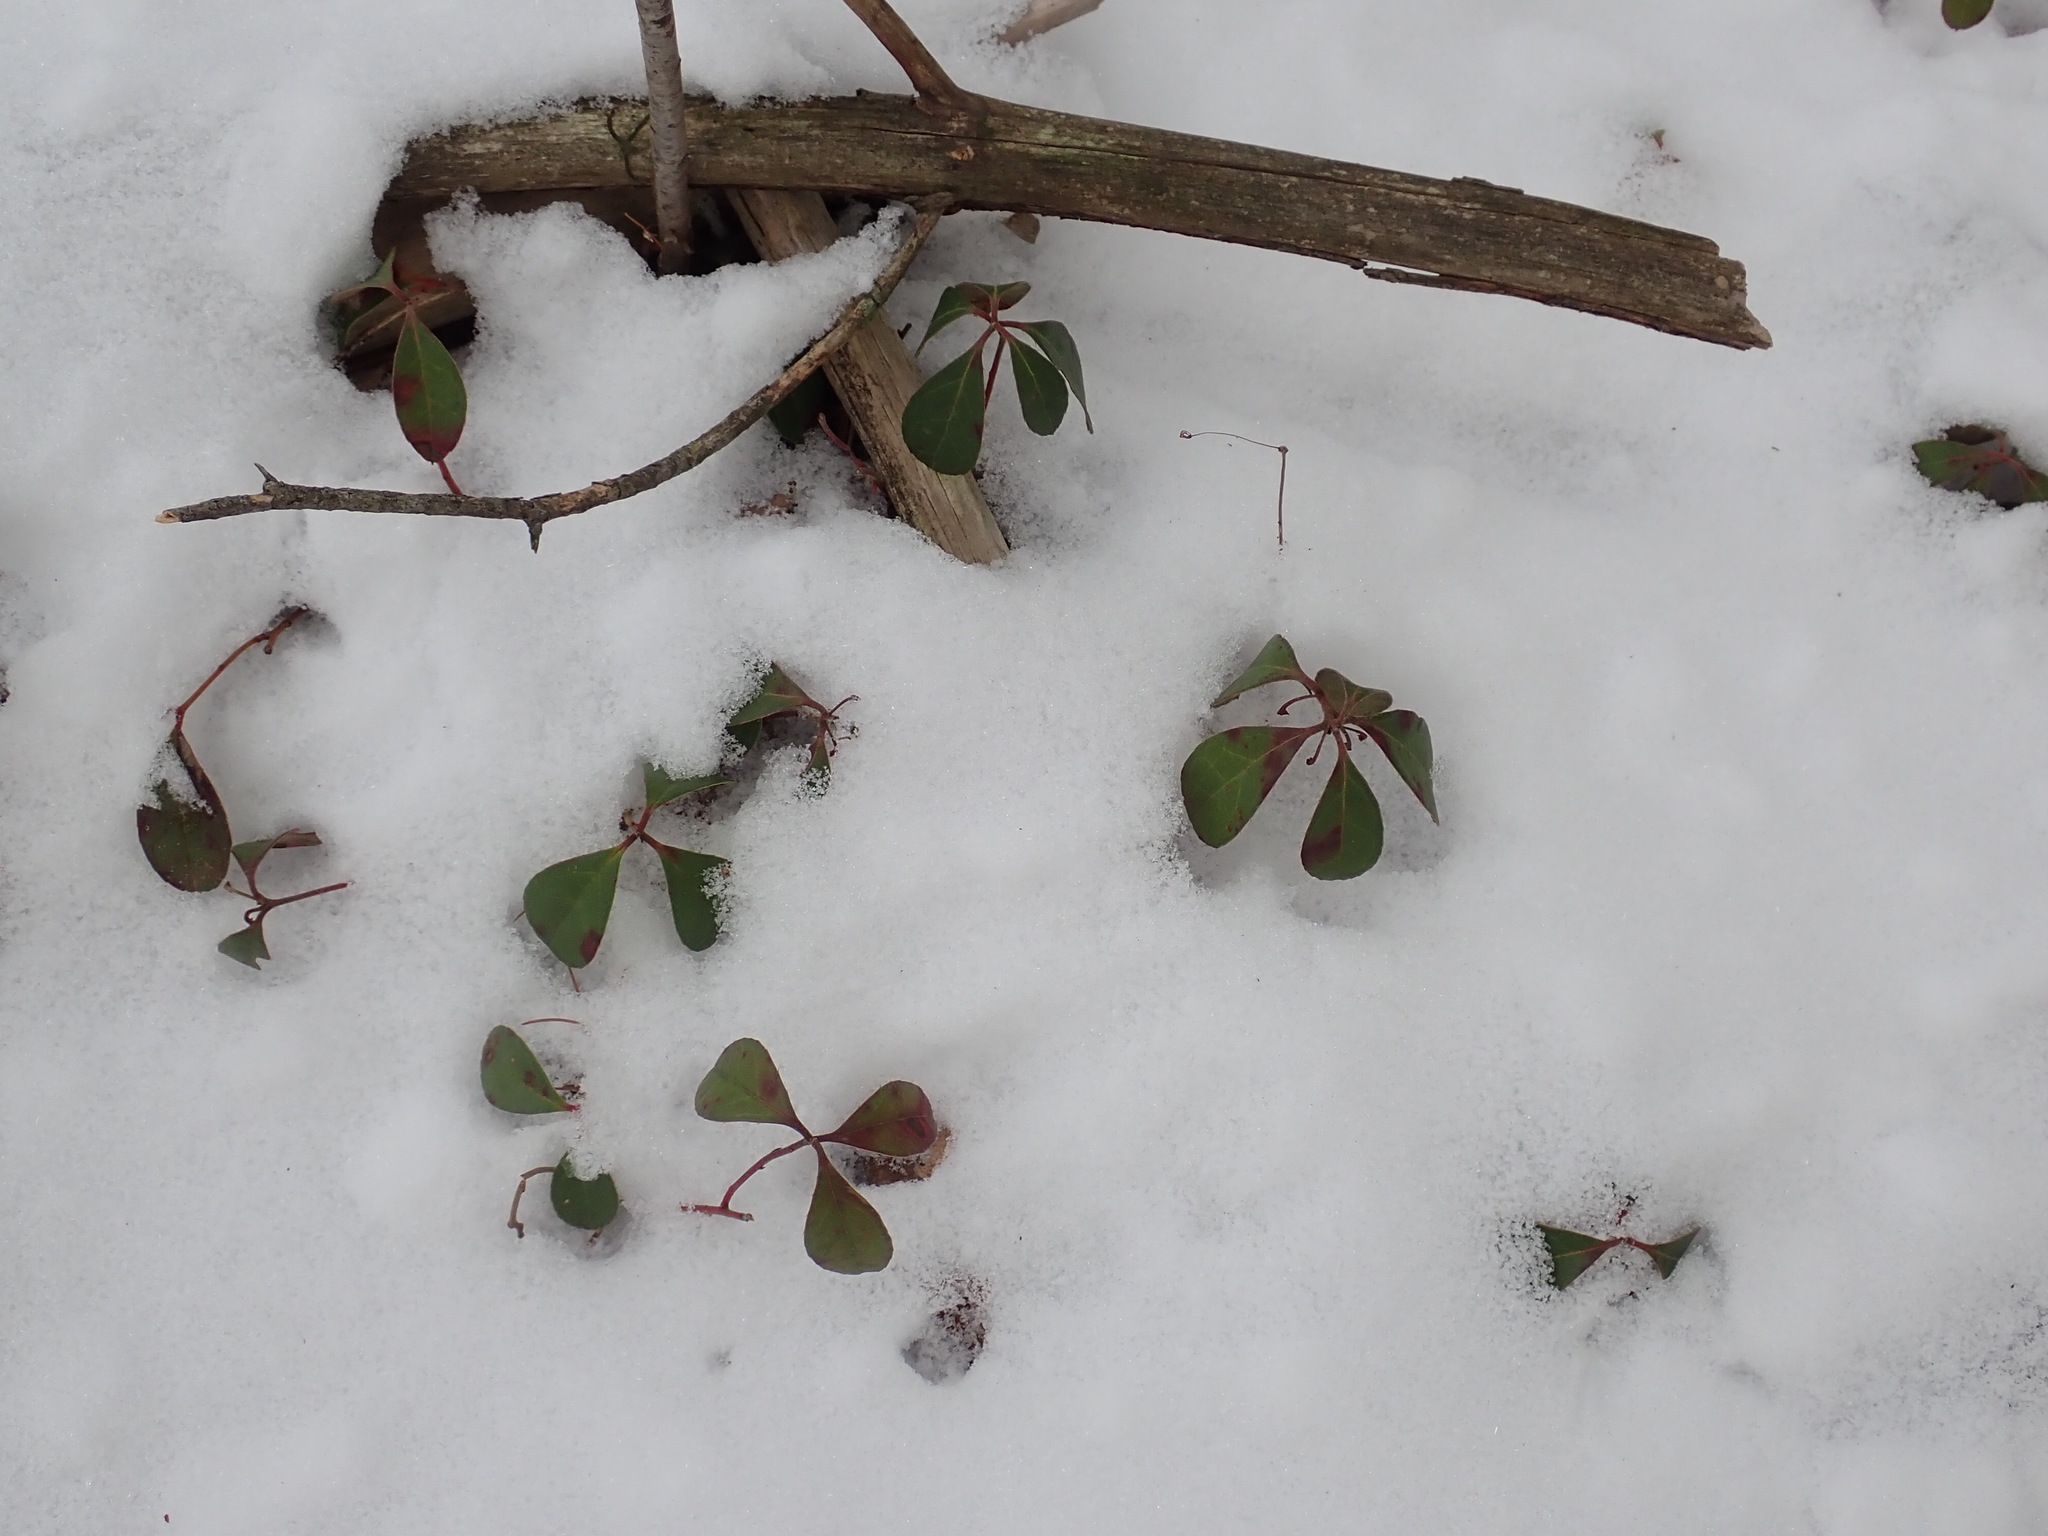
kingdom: Plantae
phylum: Tracheophyta
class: Magnoliopsida
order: Ericales
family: Ericaceae
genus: Gaultheria
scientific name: Gaultheria procumbens
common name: Checkerberry
